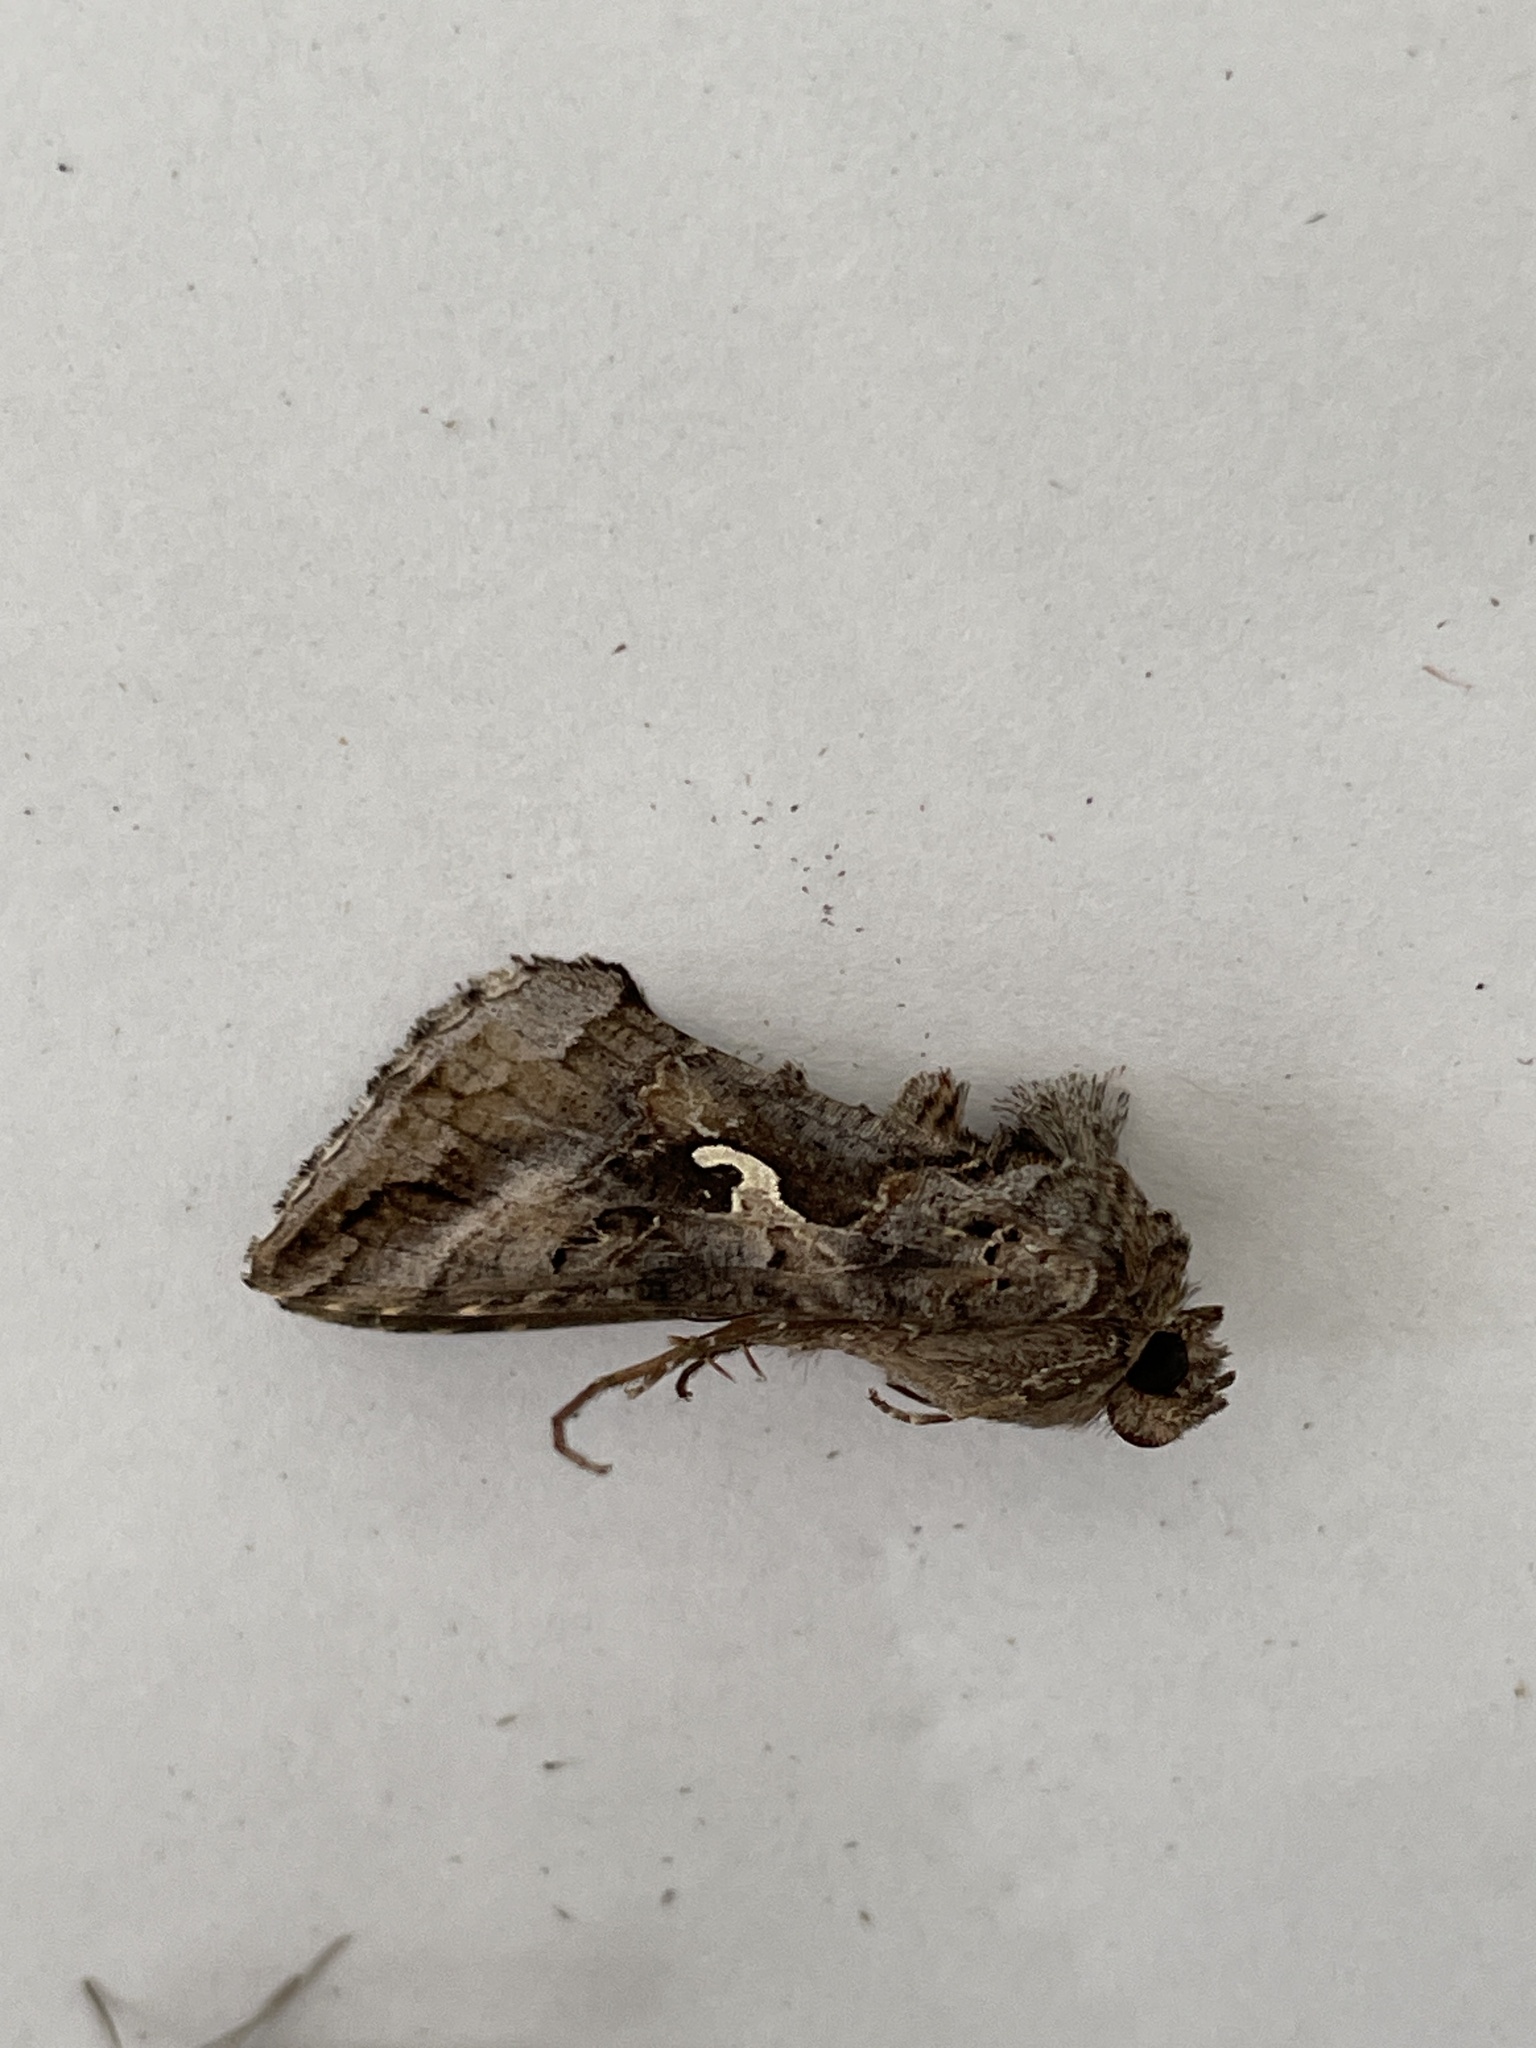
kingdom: Animalia
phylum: Arthropoda
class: Insecta
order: Lepidoptera
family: Noctuidae
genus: Autographa
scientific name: Autographa gamma
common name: Silver y
